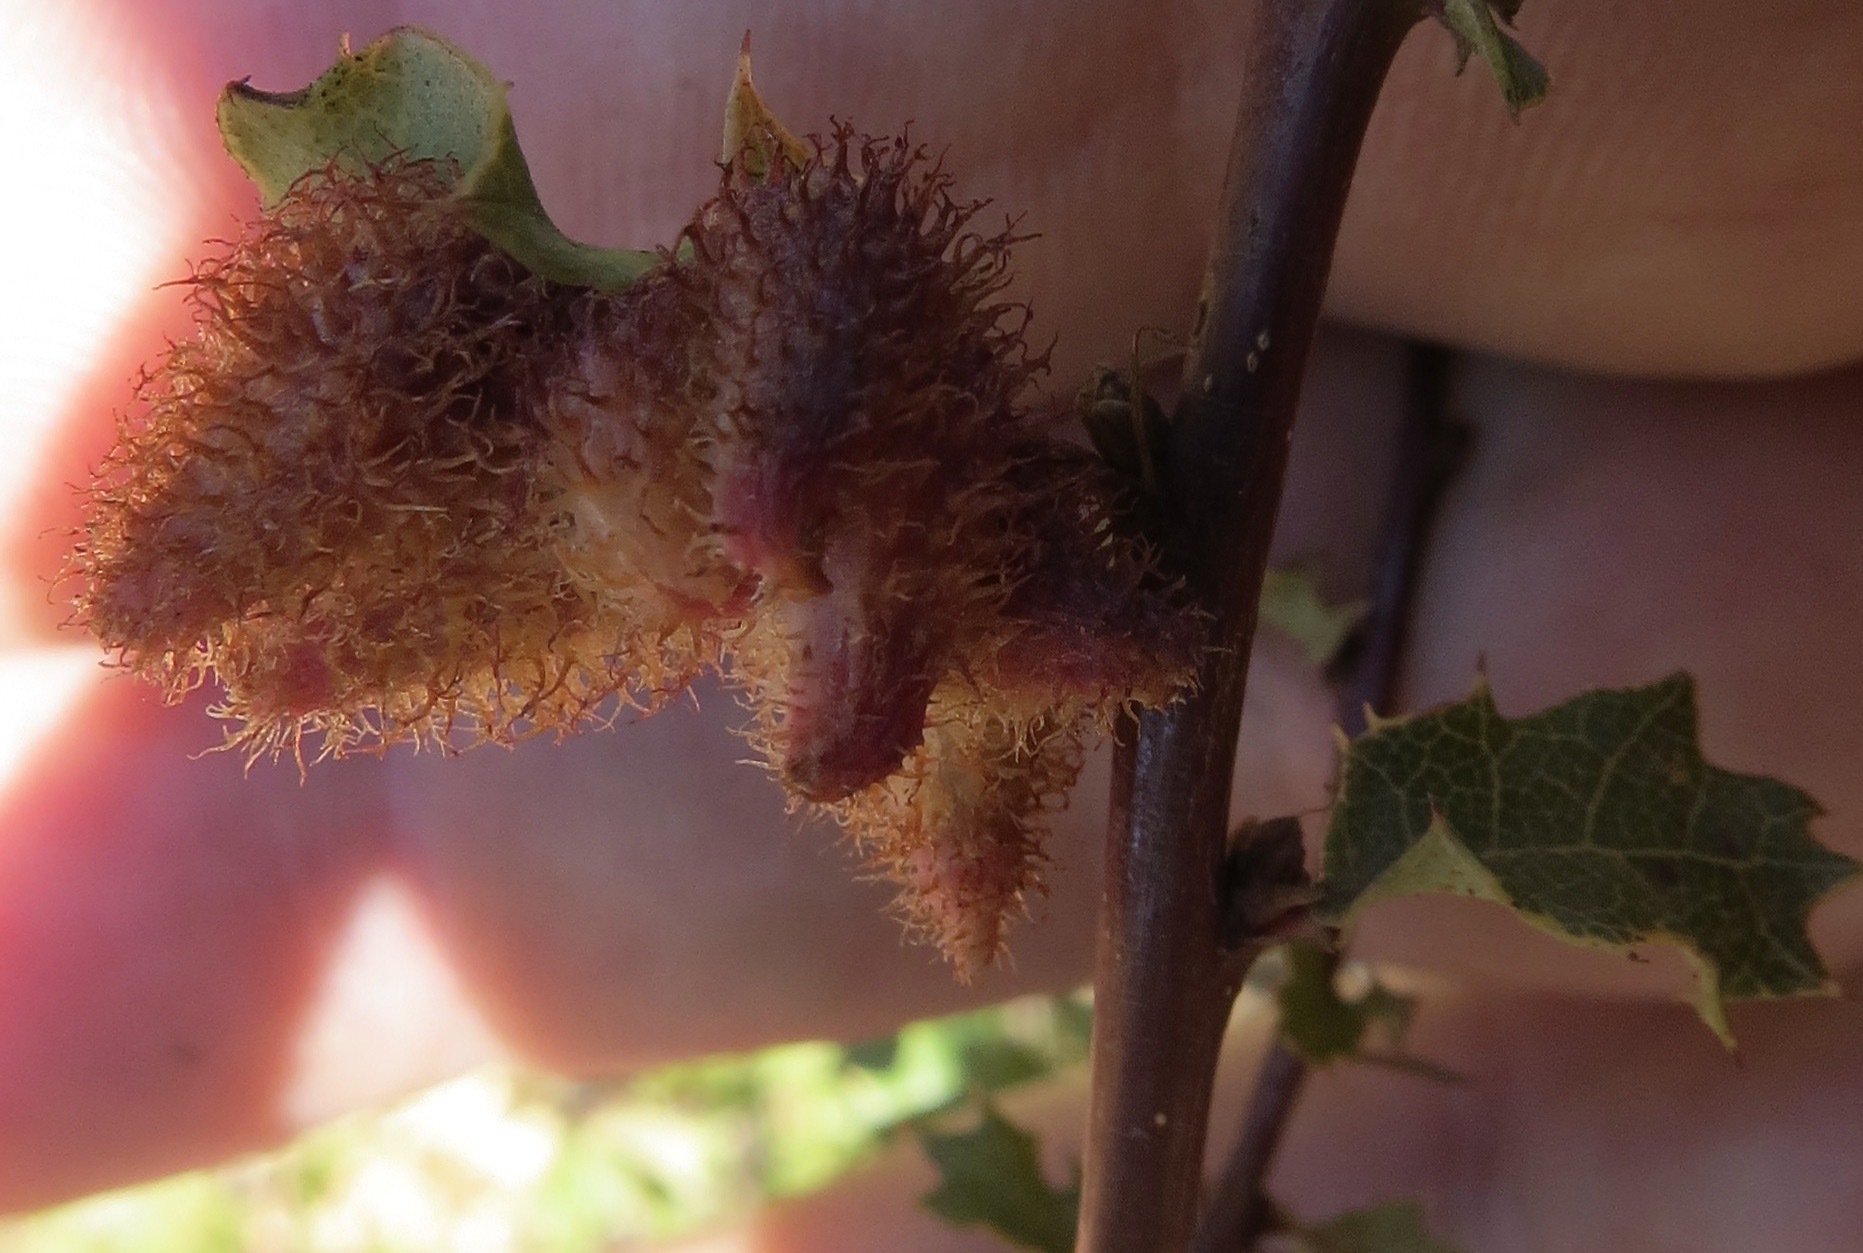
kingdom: Animalia
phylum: Arthropoda
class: Insecta
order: Hymenoptera
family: Cynipidae
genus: Andricus
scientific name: Andricus
